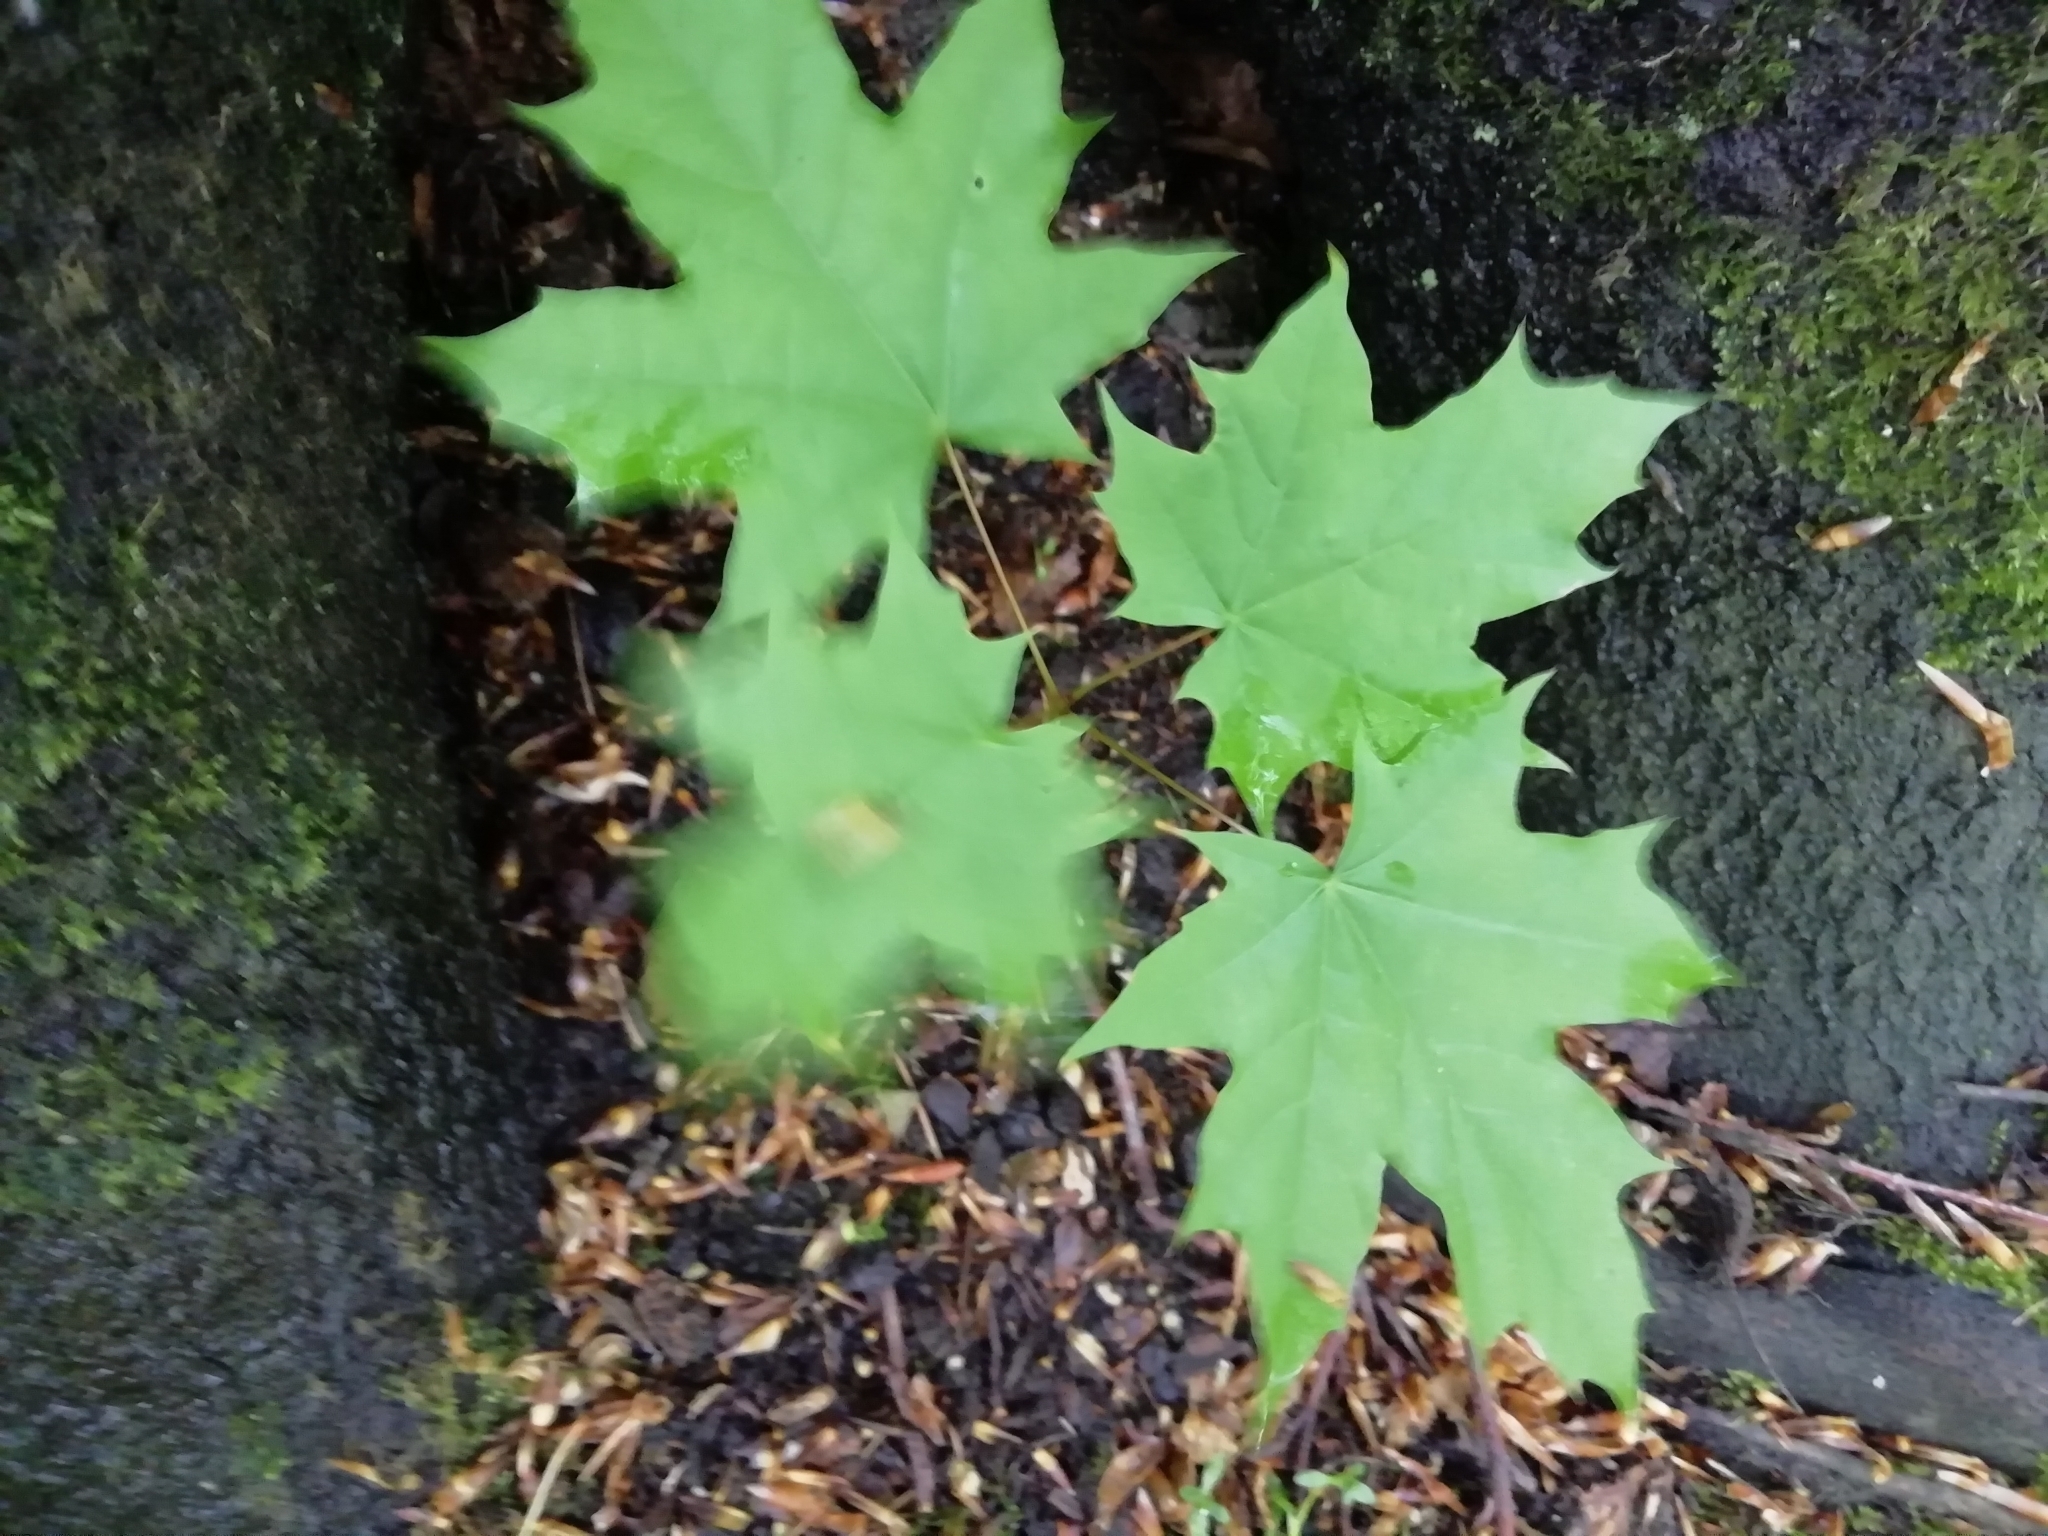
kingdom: Plantae
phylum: Tracheophyta
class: Magnoliopsida
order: Sapindales
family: Sapindaceae
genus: Acer
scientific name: Acer platanoides
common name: Norway maple
